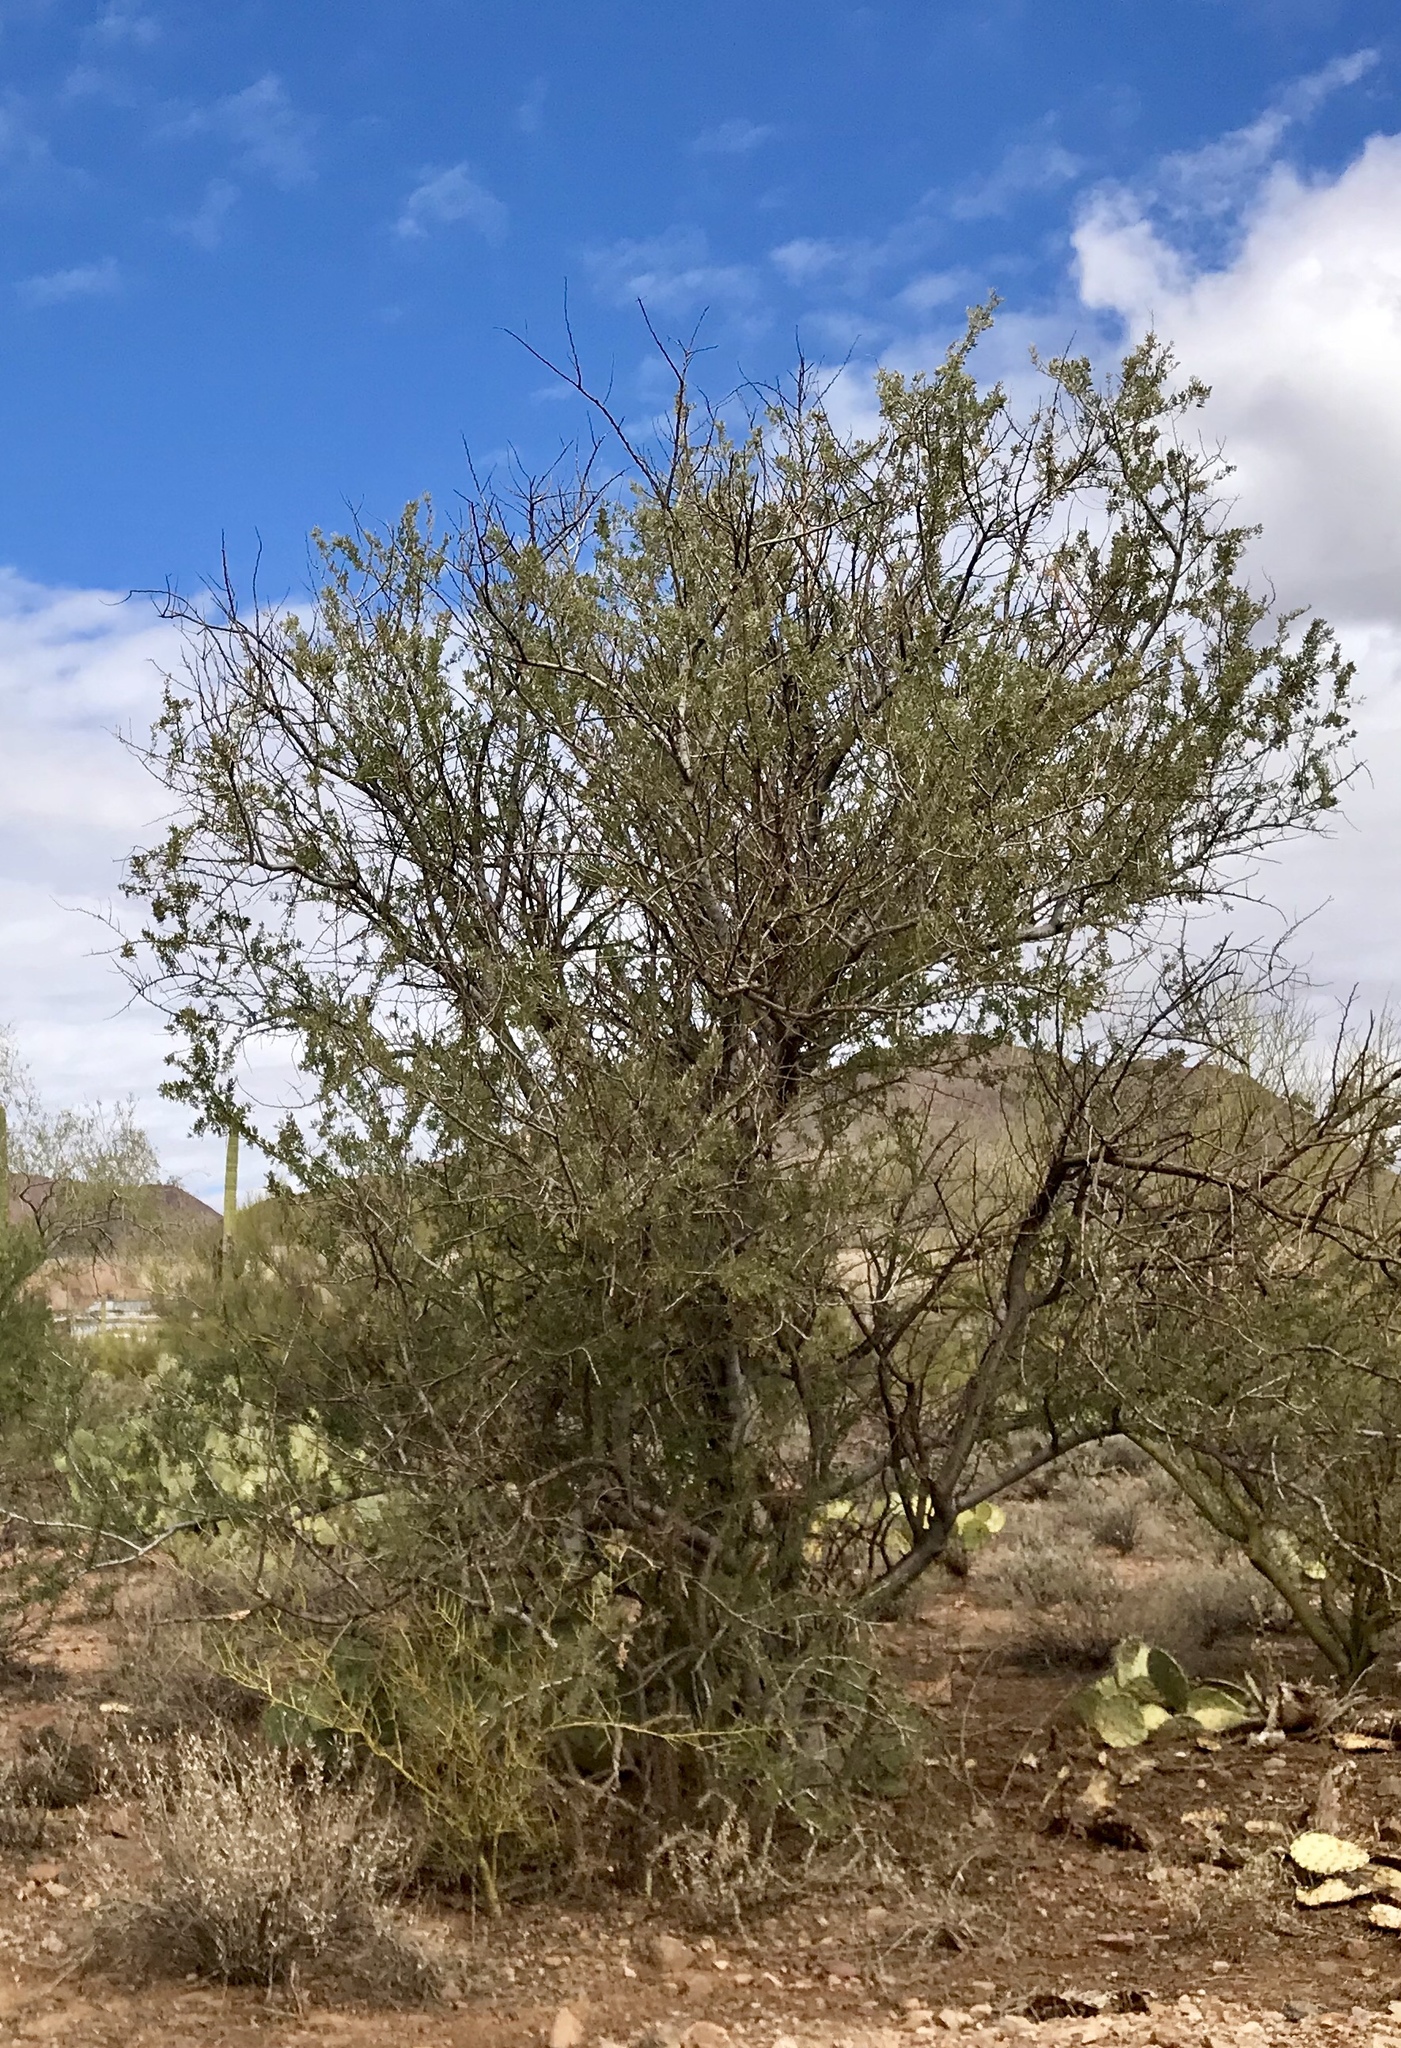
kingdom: Plantae
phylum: Tracheophyta
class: Magnoliopsida
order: Fabales
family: Fabaceae
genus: Olneya
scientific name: Olneya tesota
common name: Desert ironwood
